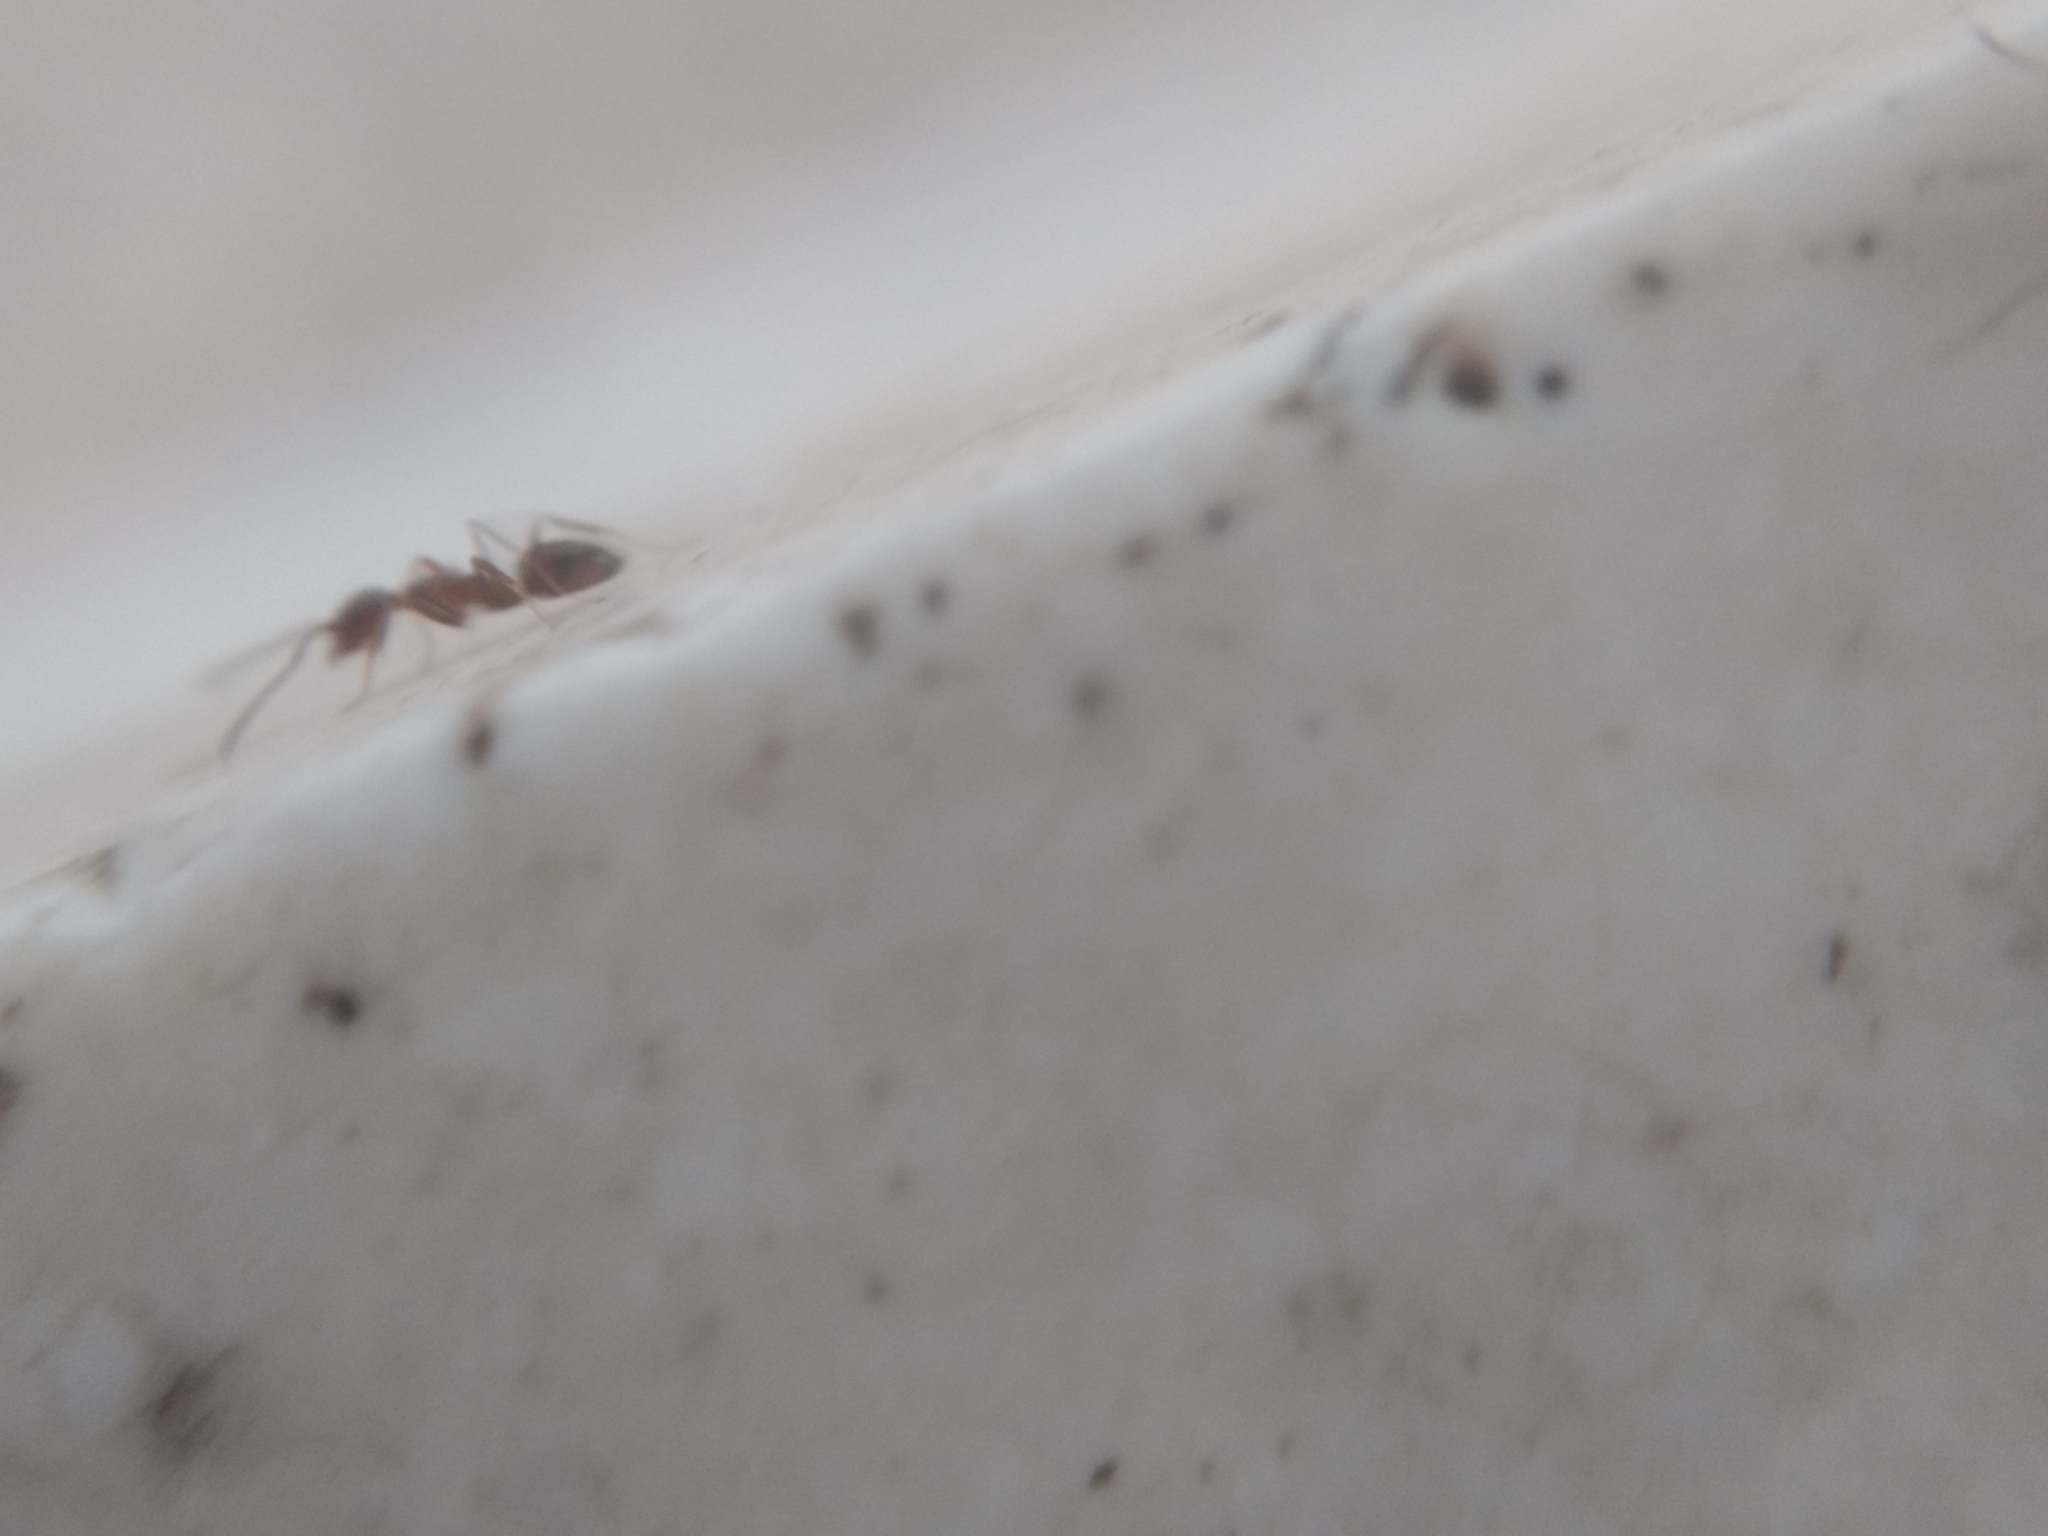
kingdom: Animalia
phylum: Arthropoda
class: Insecta
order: Hymenoptera
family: Formicidae
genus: Linepithema
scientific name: Linepithema humile
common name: Argentine ant
